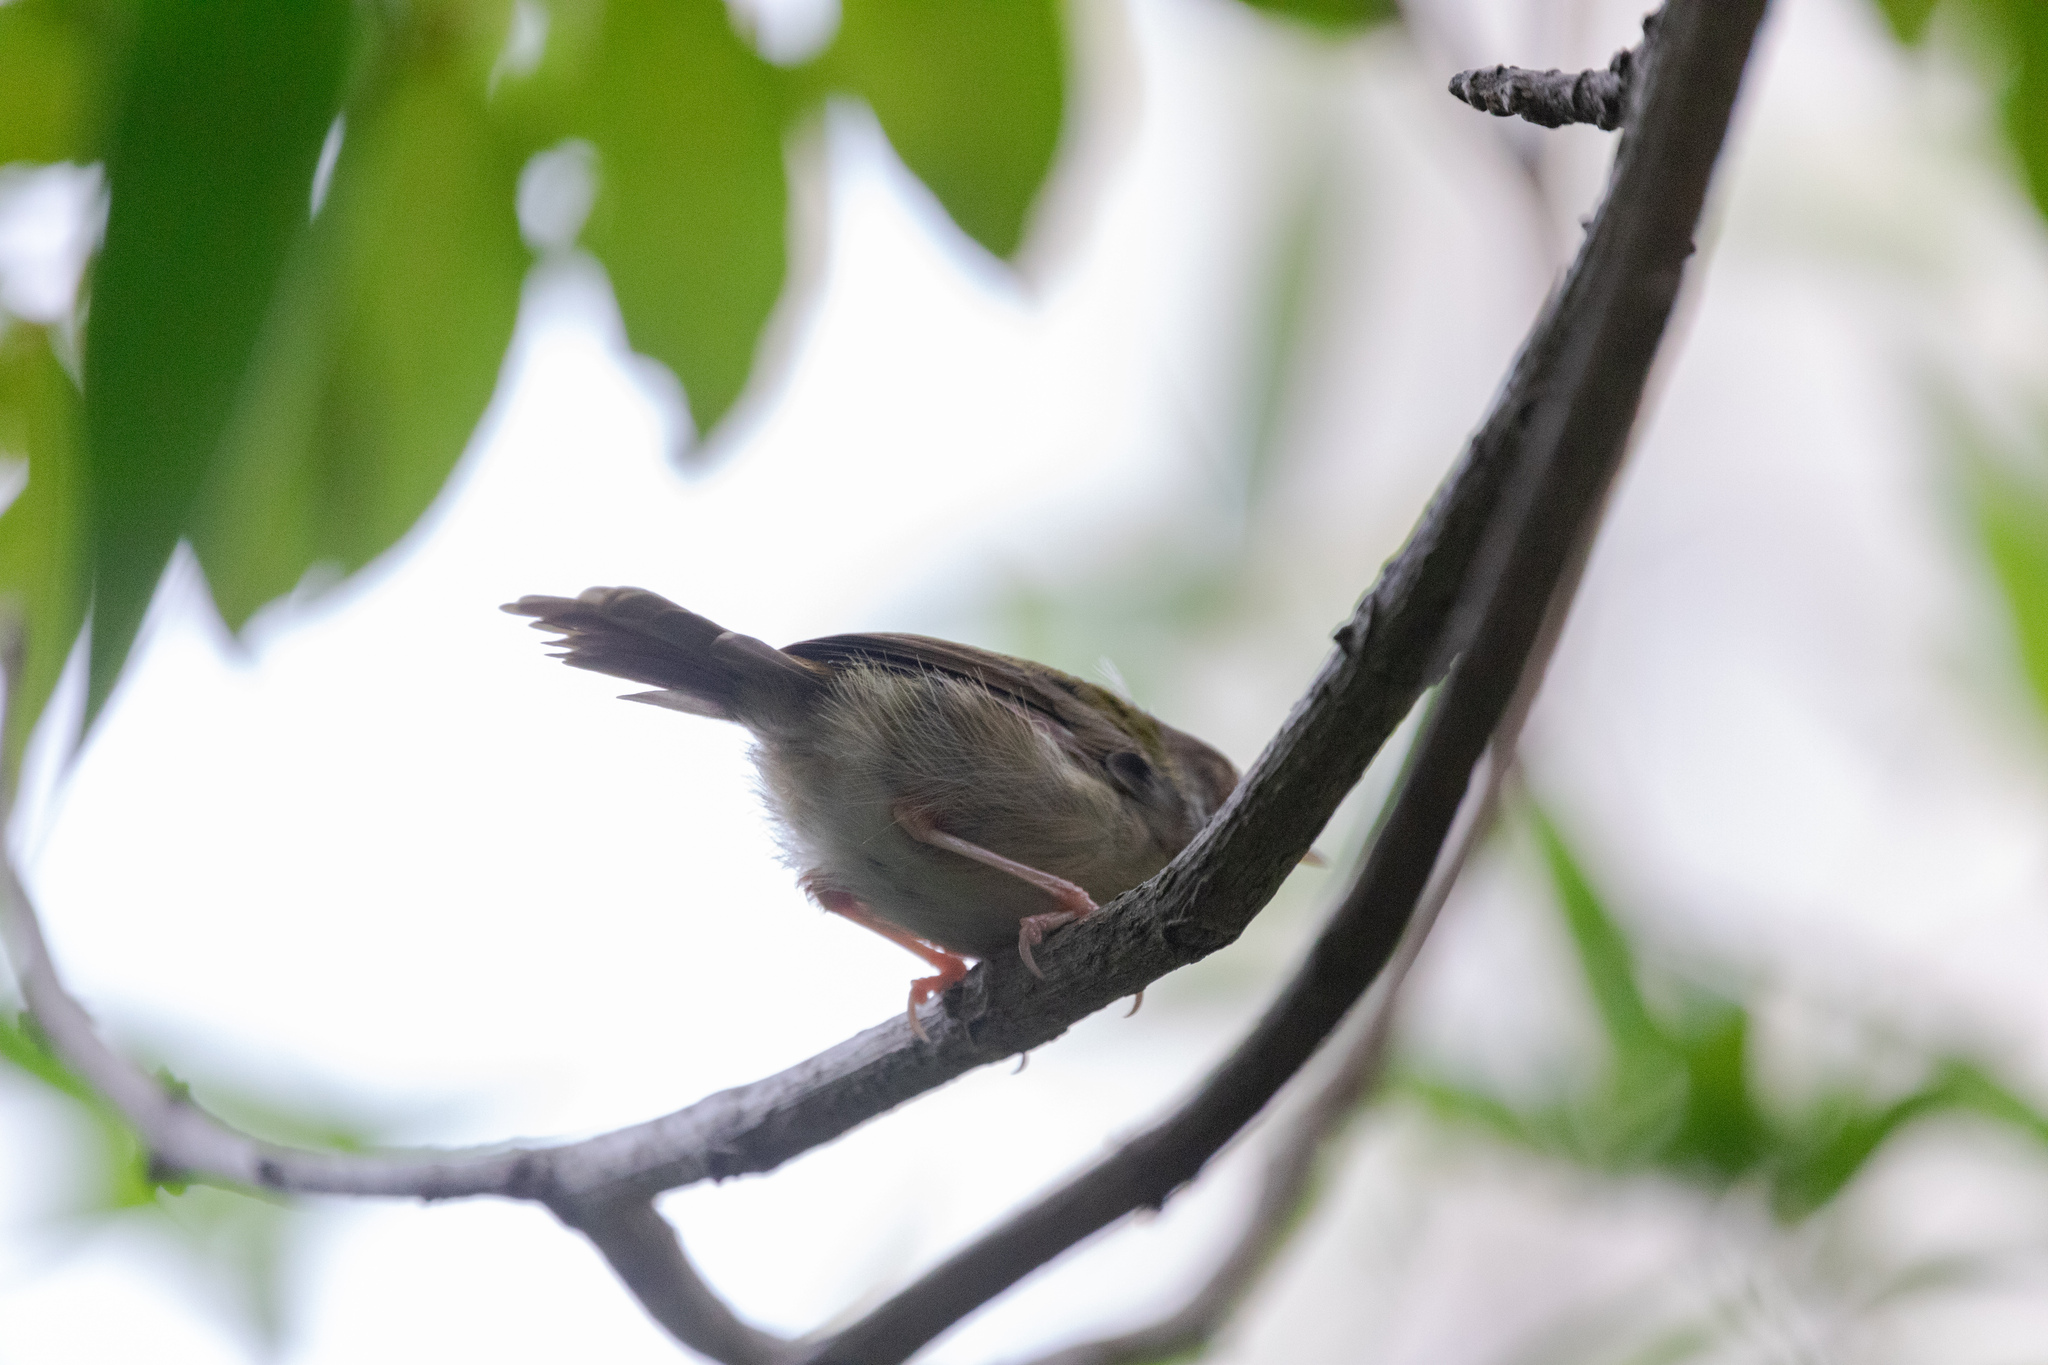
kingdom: Animalia
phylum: Chordata
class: Aves
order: Passeriformes
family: Cisticolidae
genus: Orthotomus
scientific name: Orthotomus sutorius
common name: Common tailorbird
